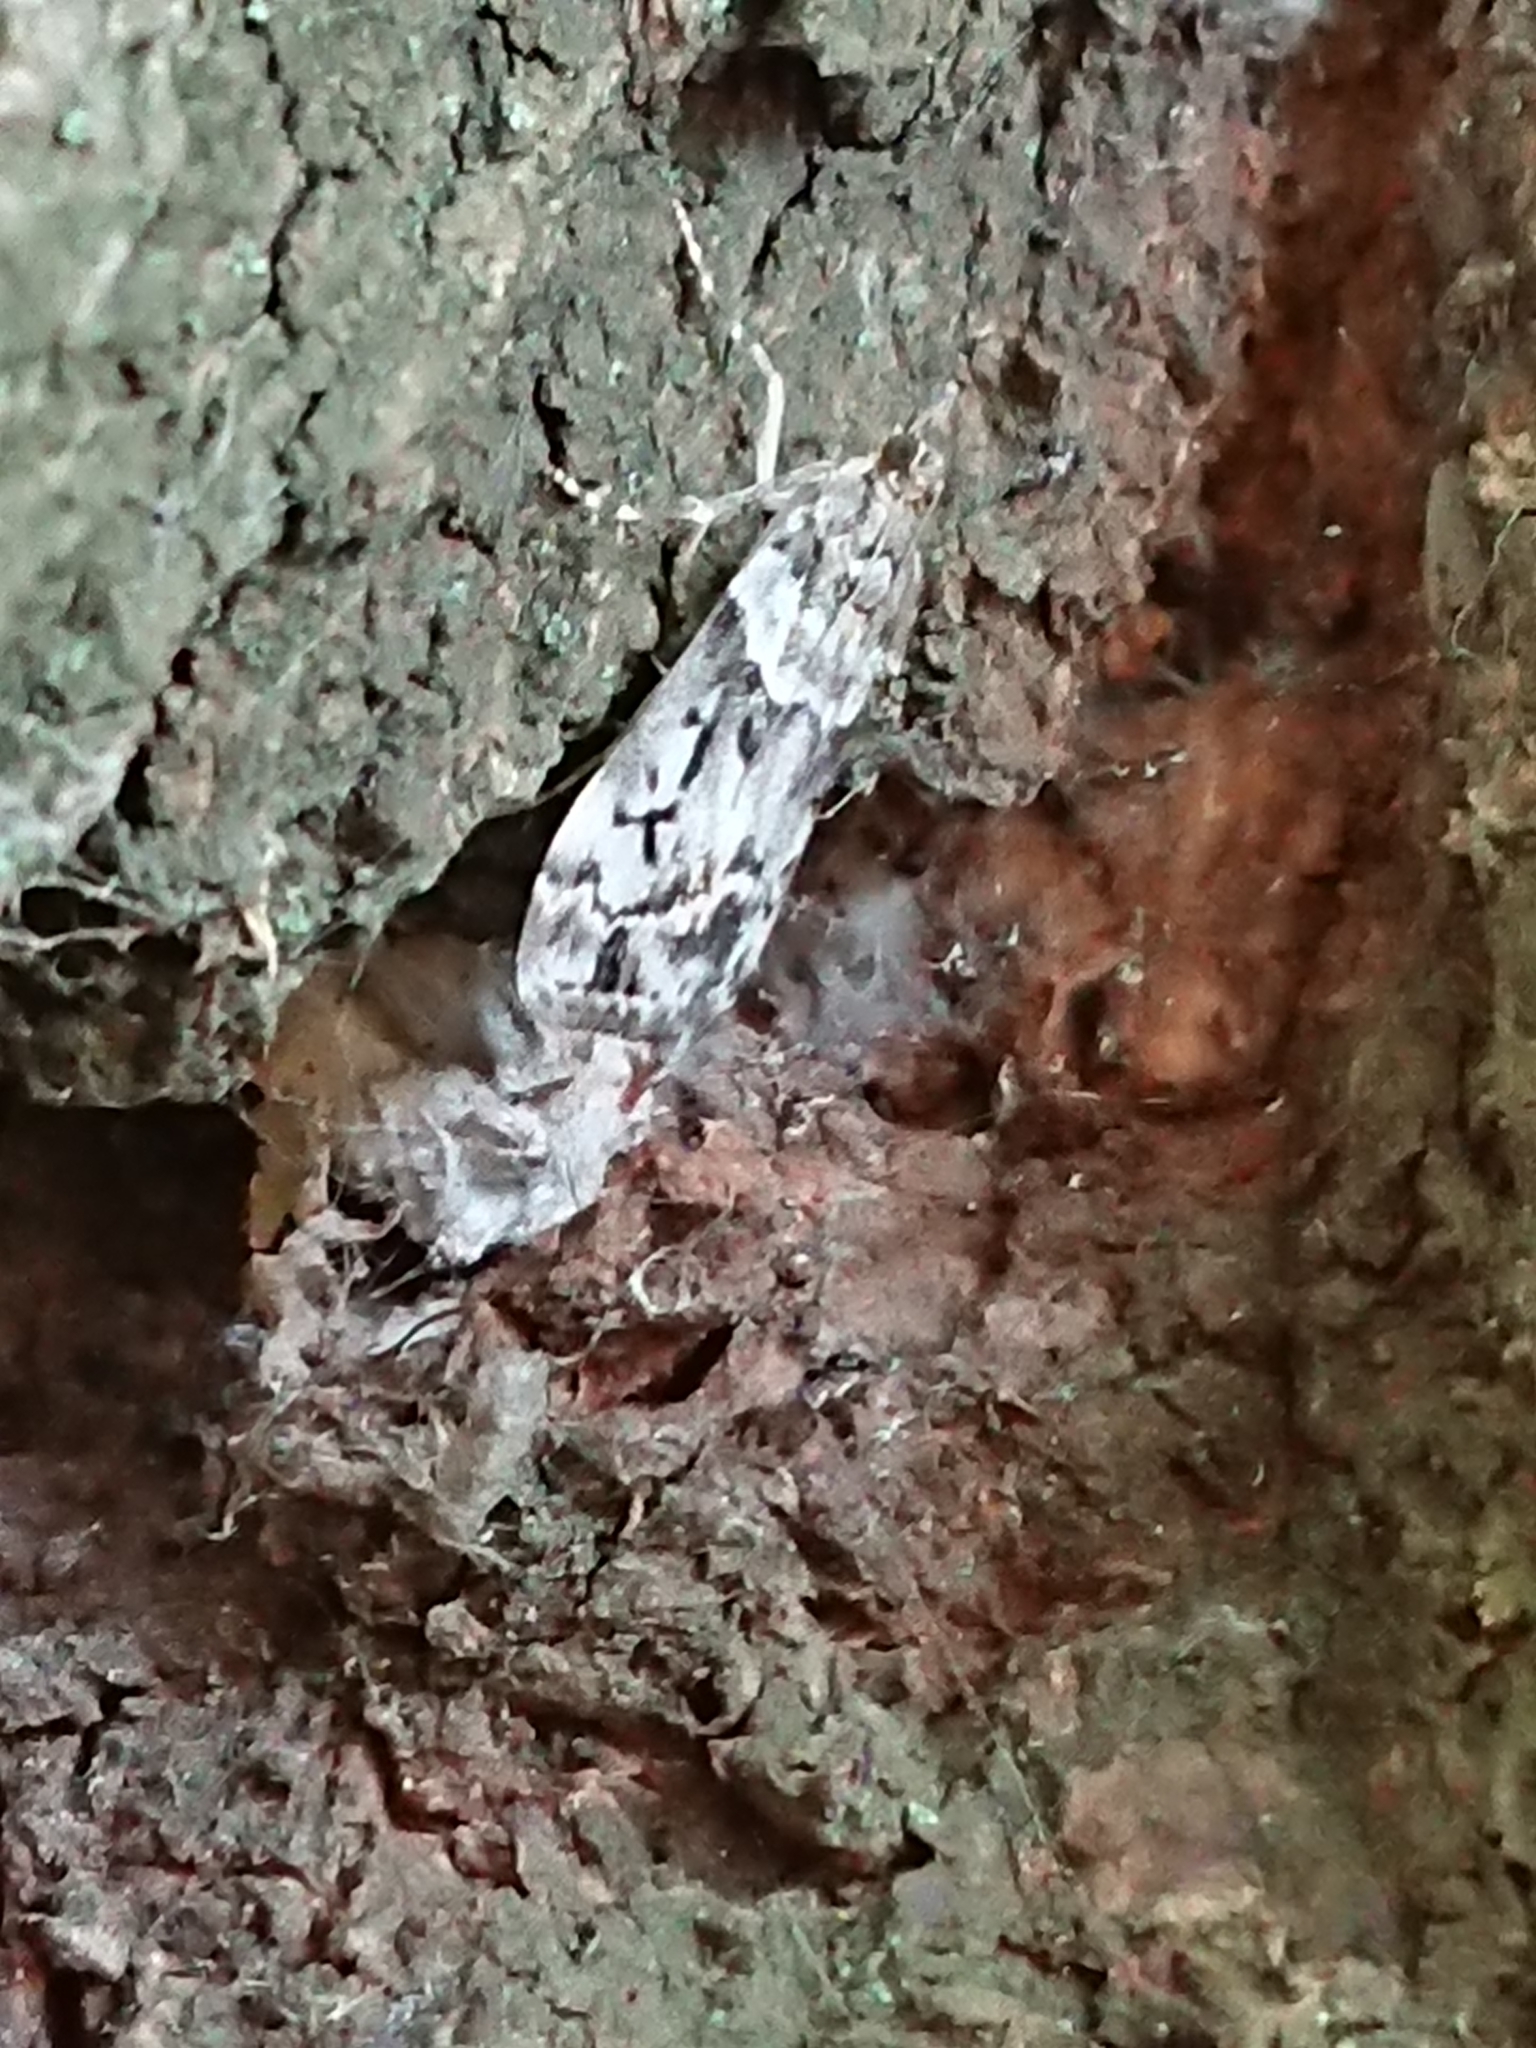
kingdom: Animalia
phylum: Arthropoda
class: Insecta
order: Lepidoptera
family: Crambidae
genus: Eudonia
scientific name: Eudonia submarginalis
